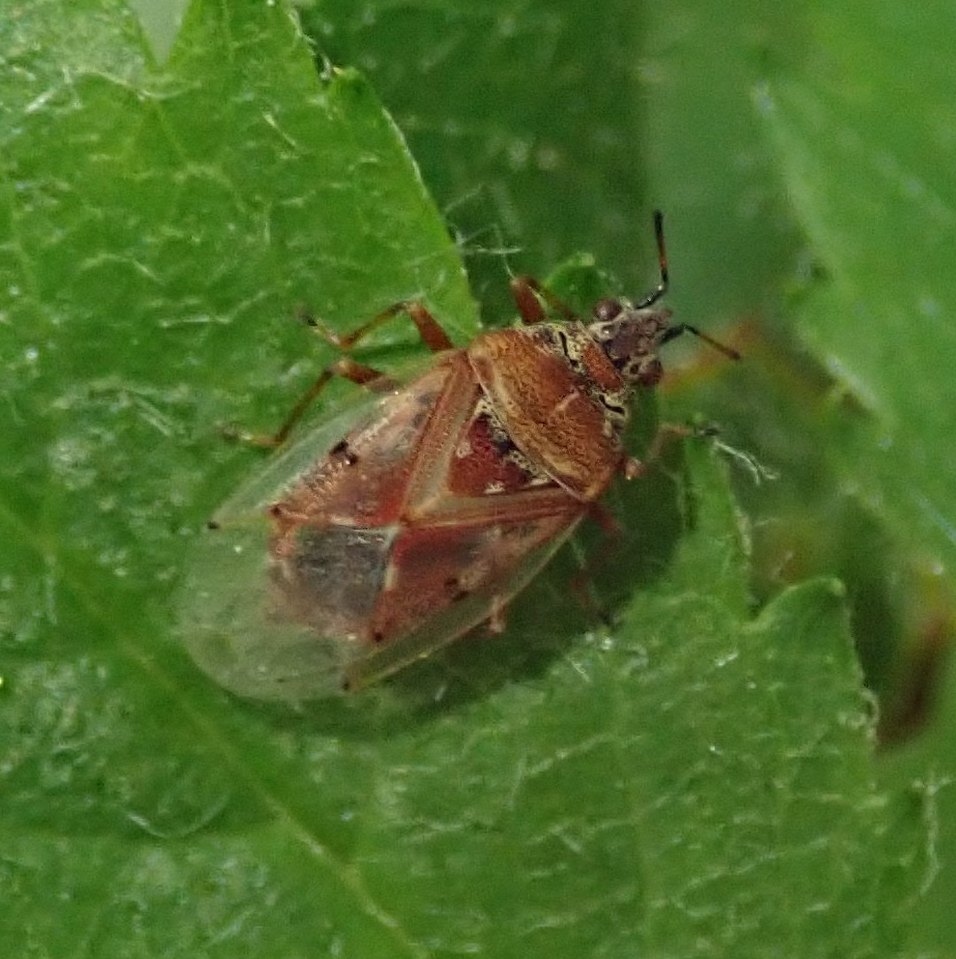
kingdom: Animalia
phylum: Arthropoda
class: Insecta
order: Hemiptera
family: Lygaeidae
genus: Kleidocerys
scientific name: Kleidocerys resedae
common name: Birch catkin bug
